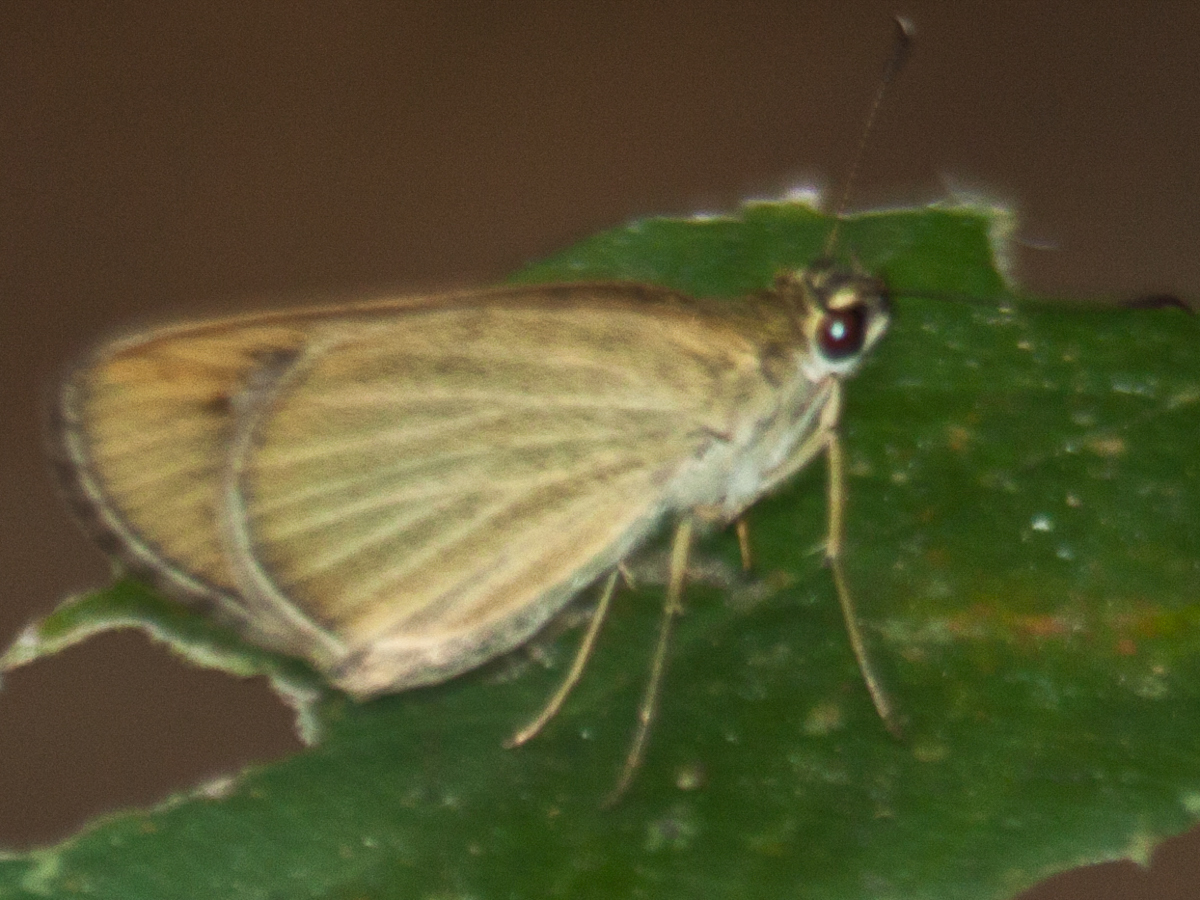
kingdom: Animalia
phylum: Arthropoda
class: Insecta
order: Lepidoptera
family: Hesperiidae
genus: Suada
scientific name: Suada swerga
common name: Grass bob
